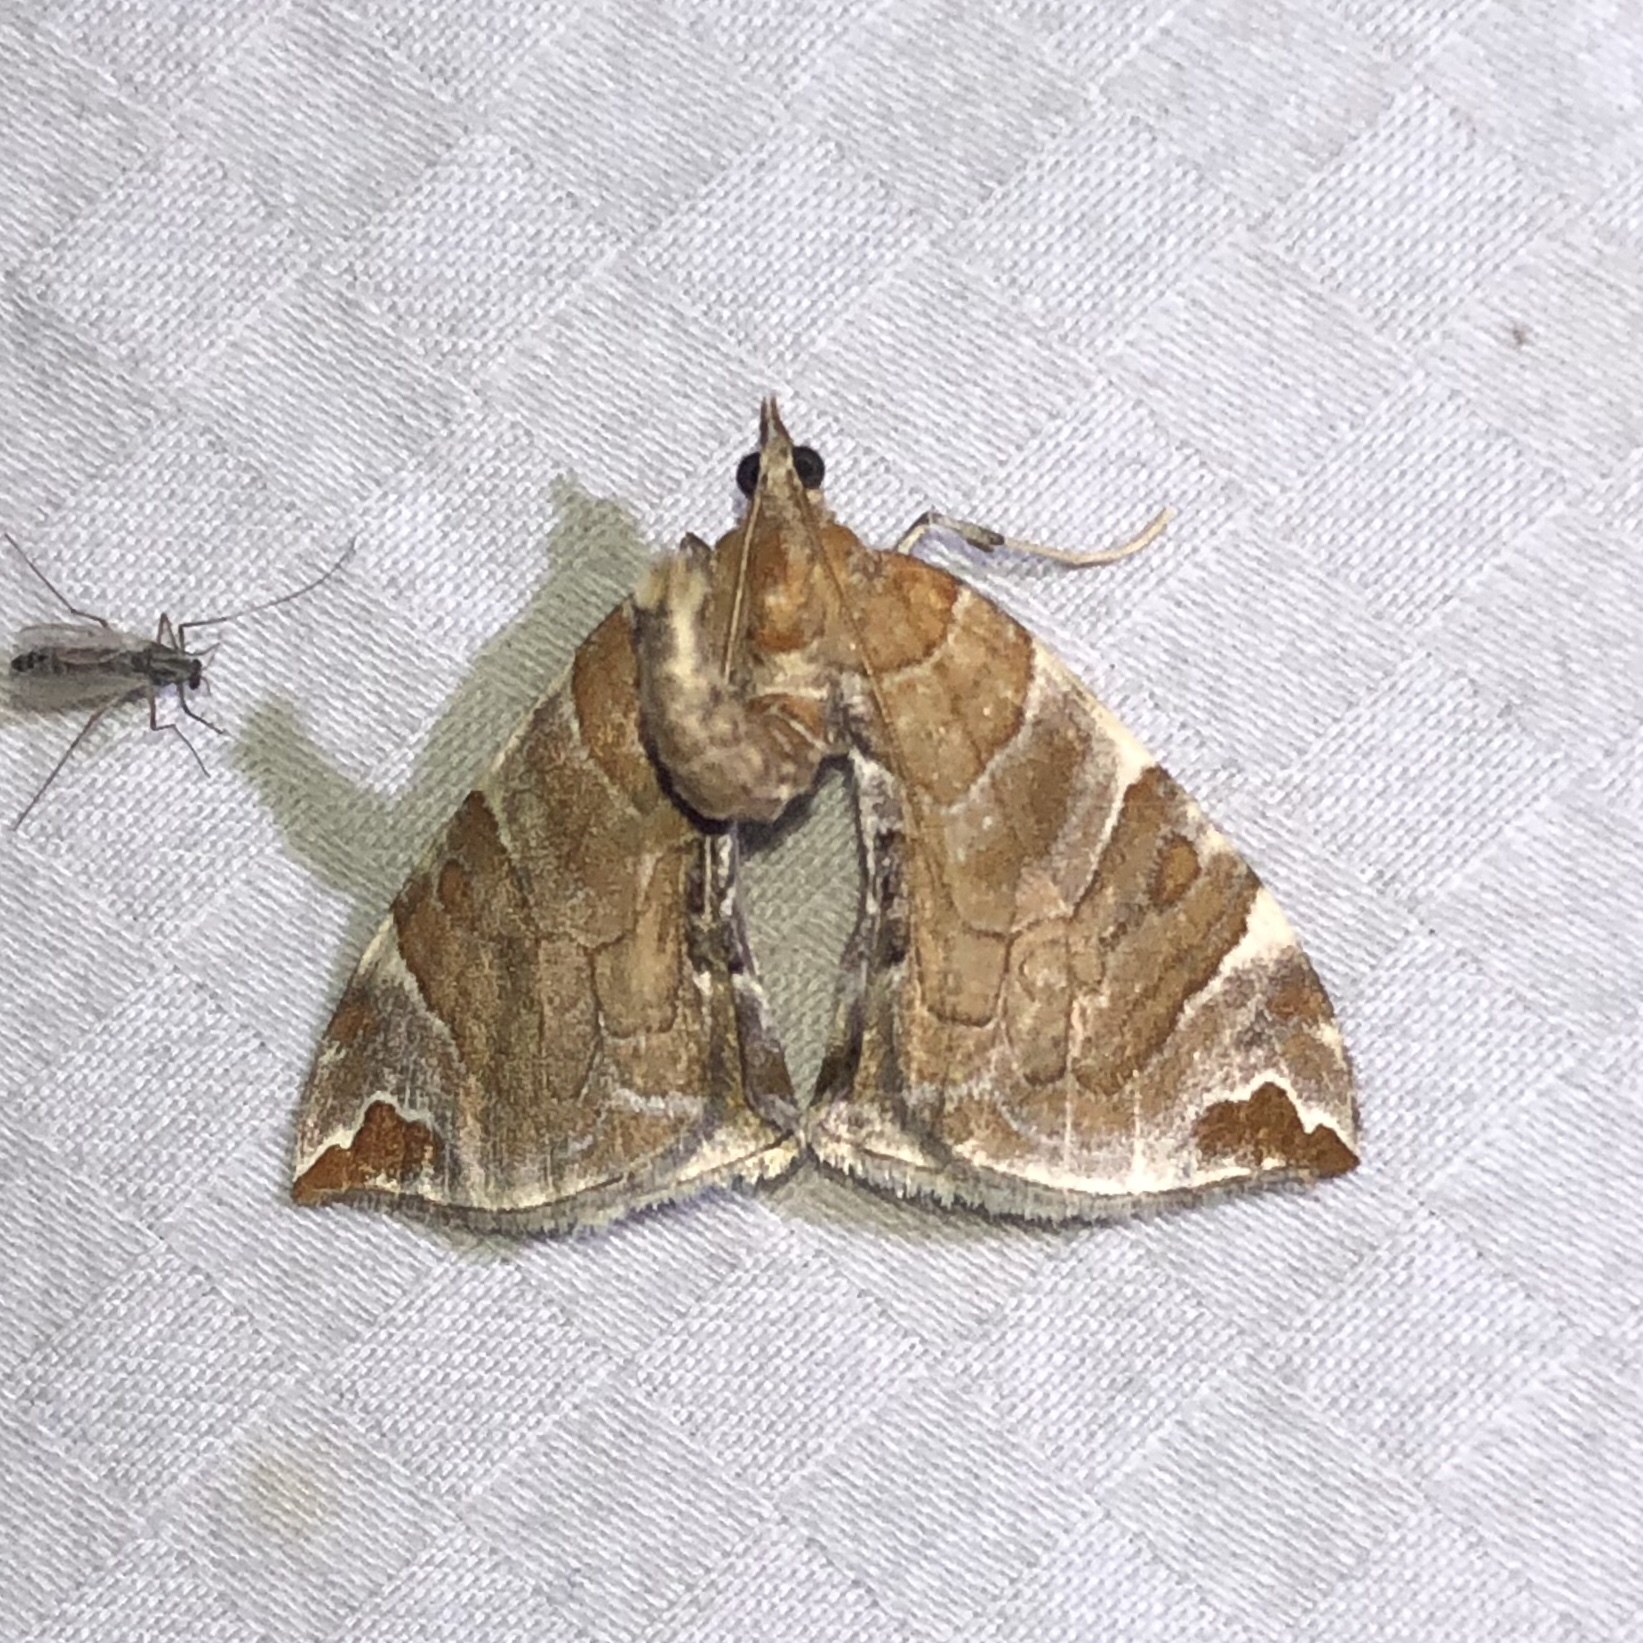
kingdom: Animalia
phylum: Arthropoda
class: Insecta
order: Lepidoptera
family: Geometridae
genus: Eulithis
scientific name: Eulithis molliculata
